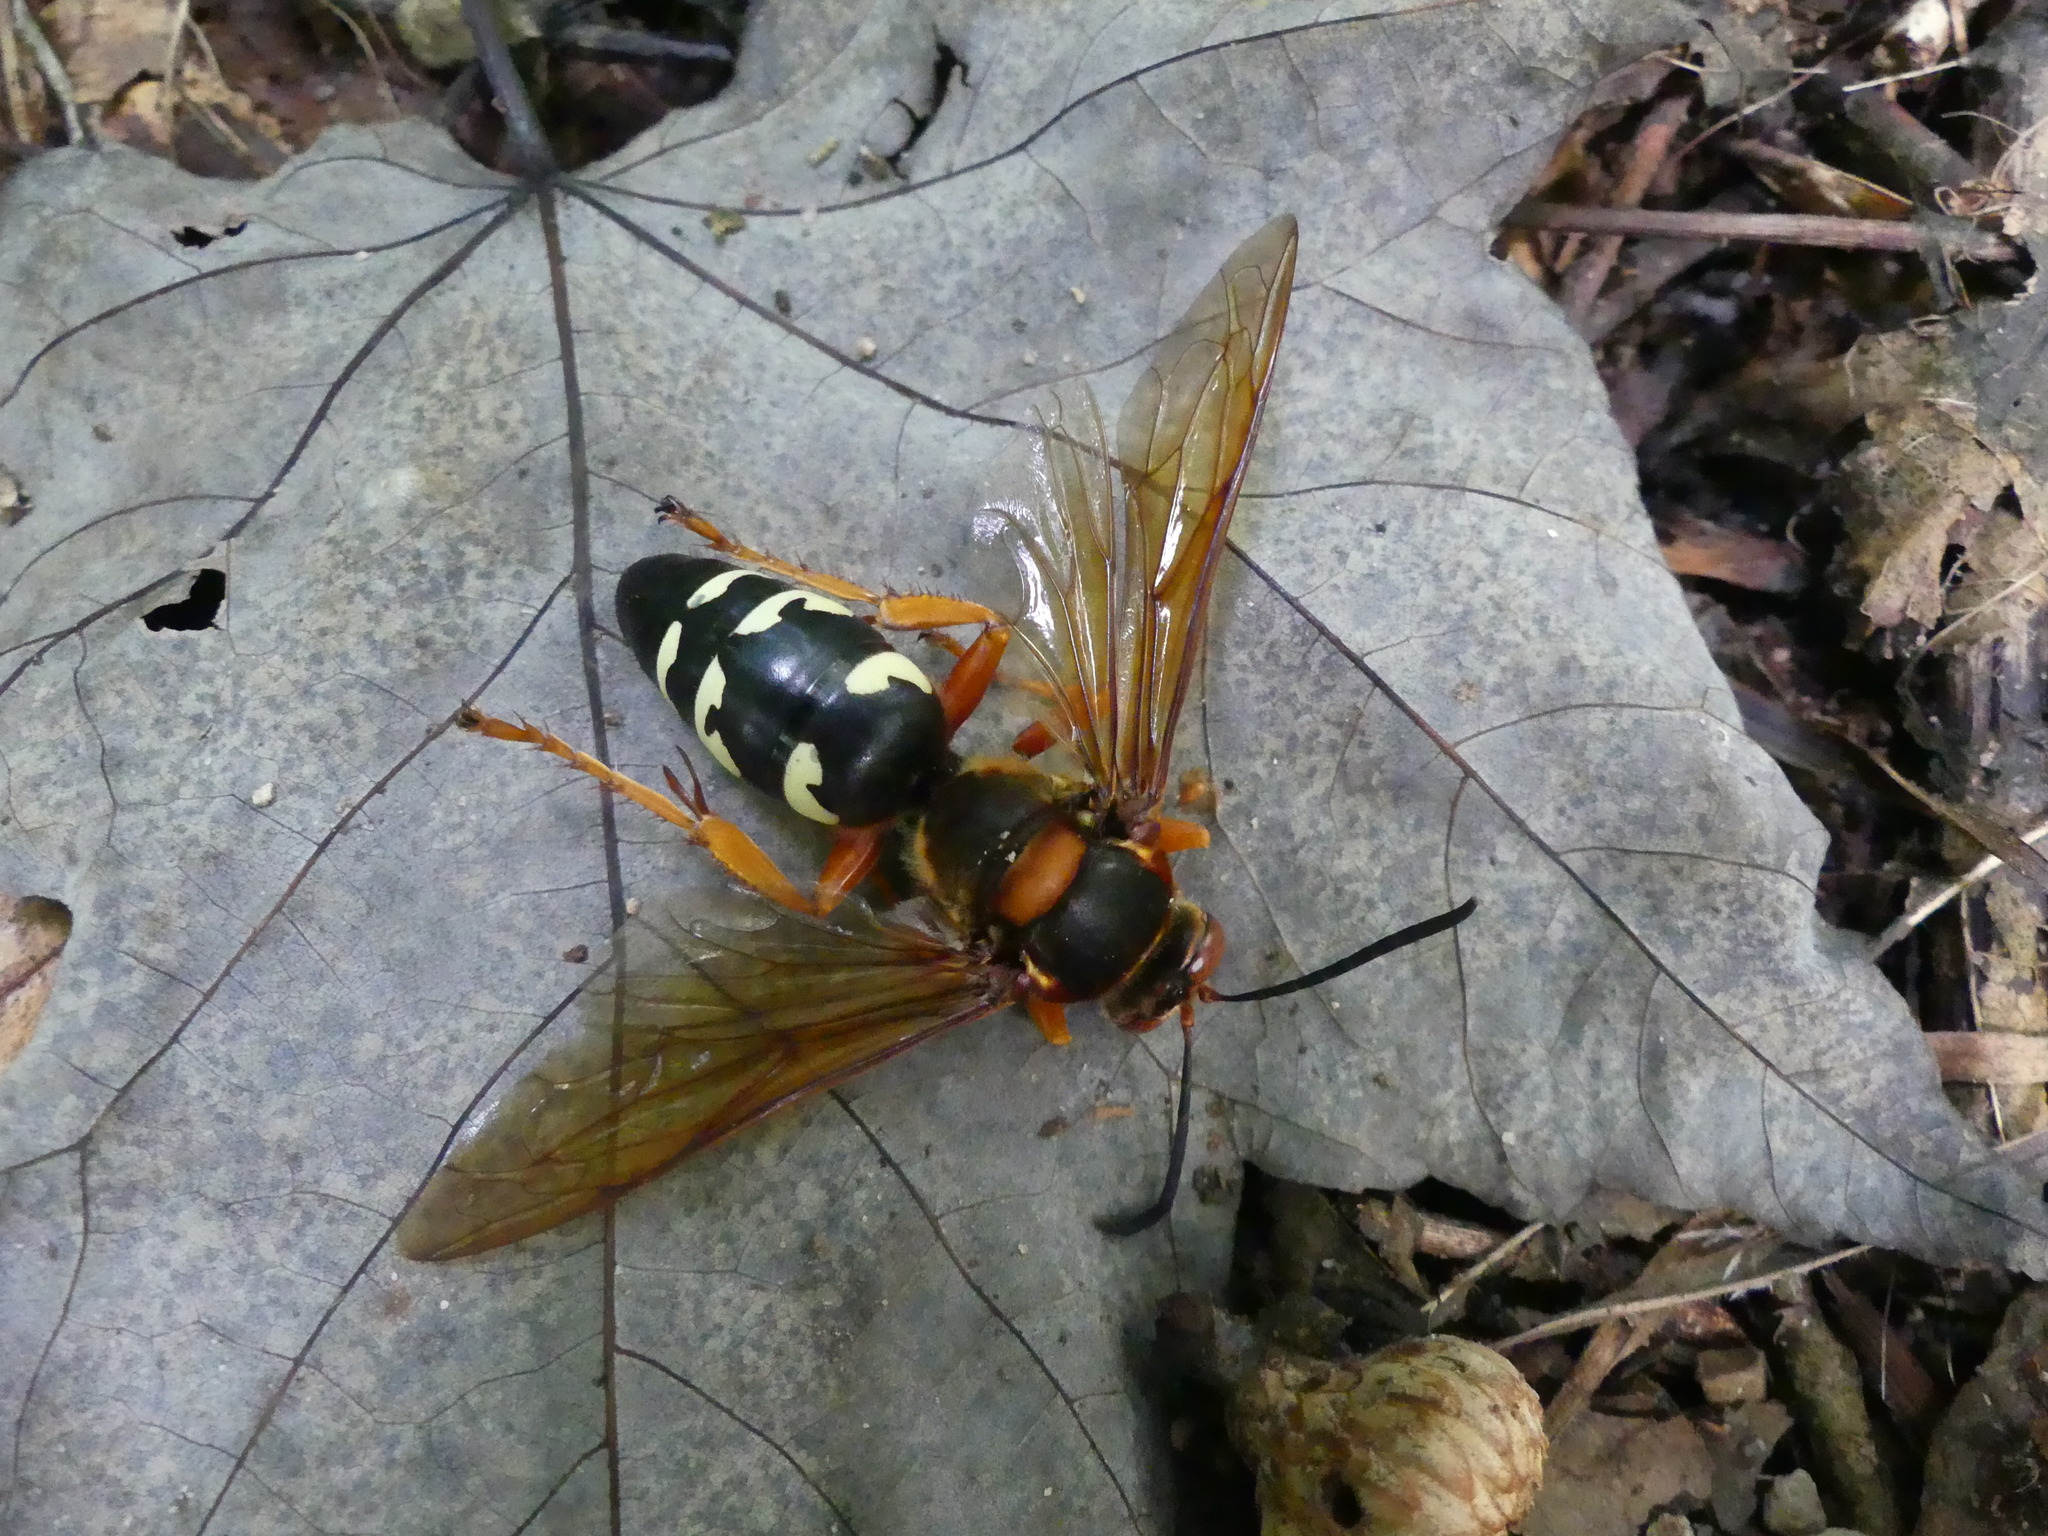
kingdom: Animalia
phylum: Arthropoda
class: Insecta
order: Hymenoptera
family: Crabronidae
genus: Sphecius
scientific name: Sphecius speciosus
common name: Cicada killer
